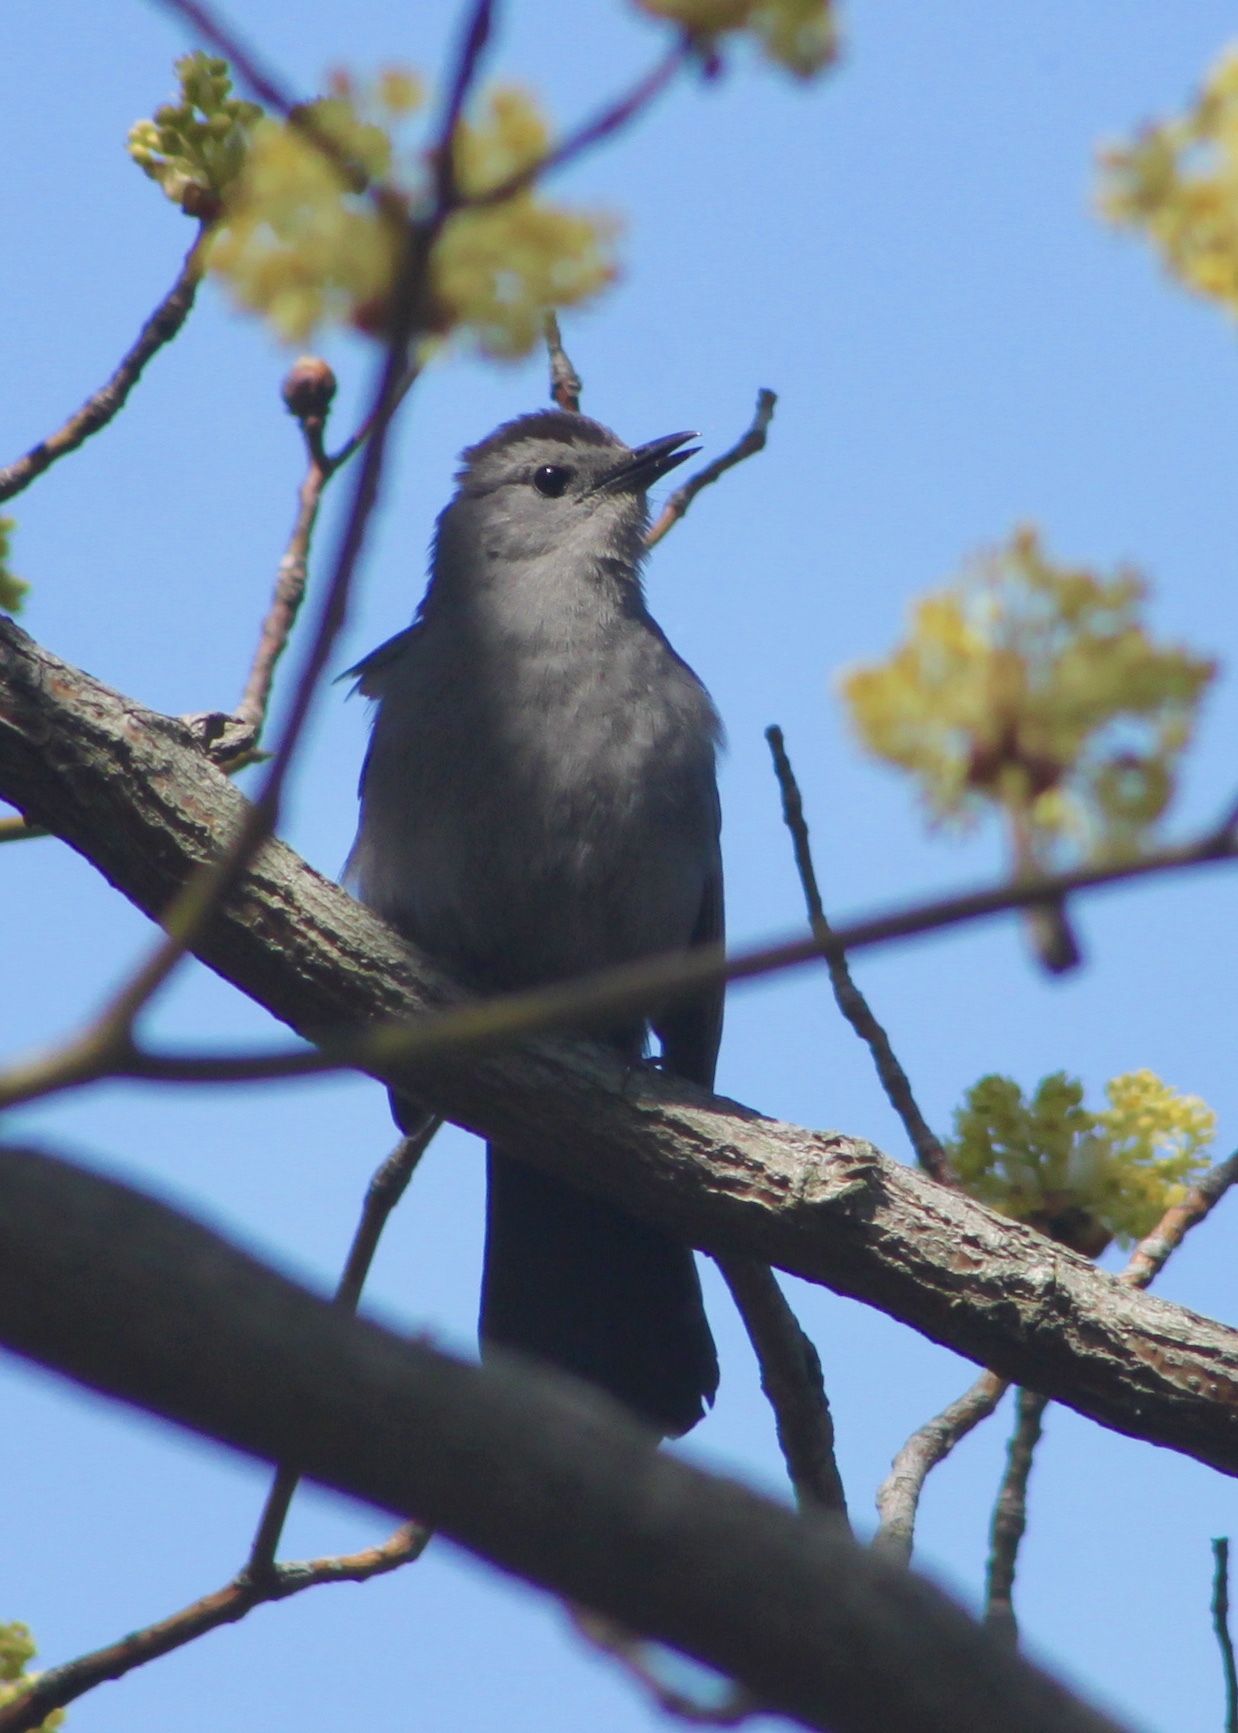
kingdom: Animalia
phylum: Chordata
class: Aves
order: Passeriformes
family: Mimidae
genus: Dumetella
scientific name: Dumetella carolinensis
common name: Gray catbird
